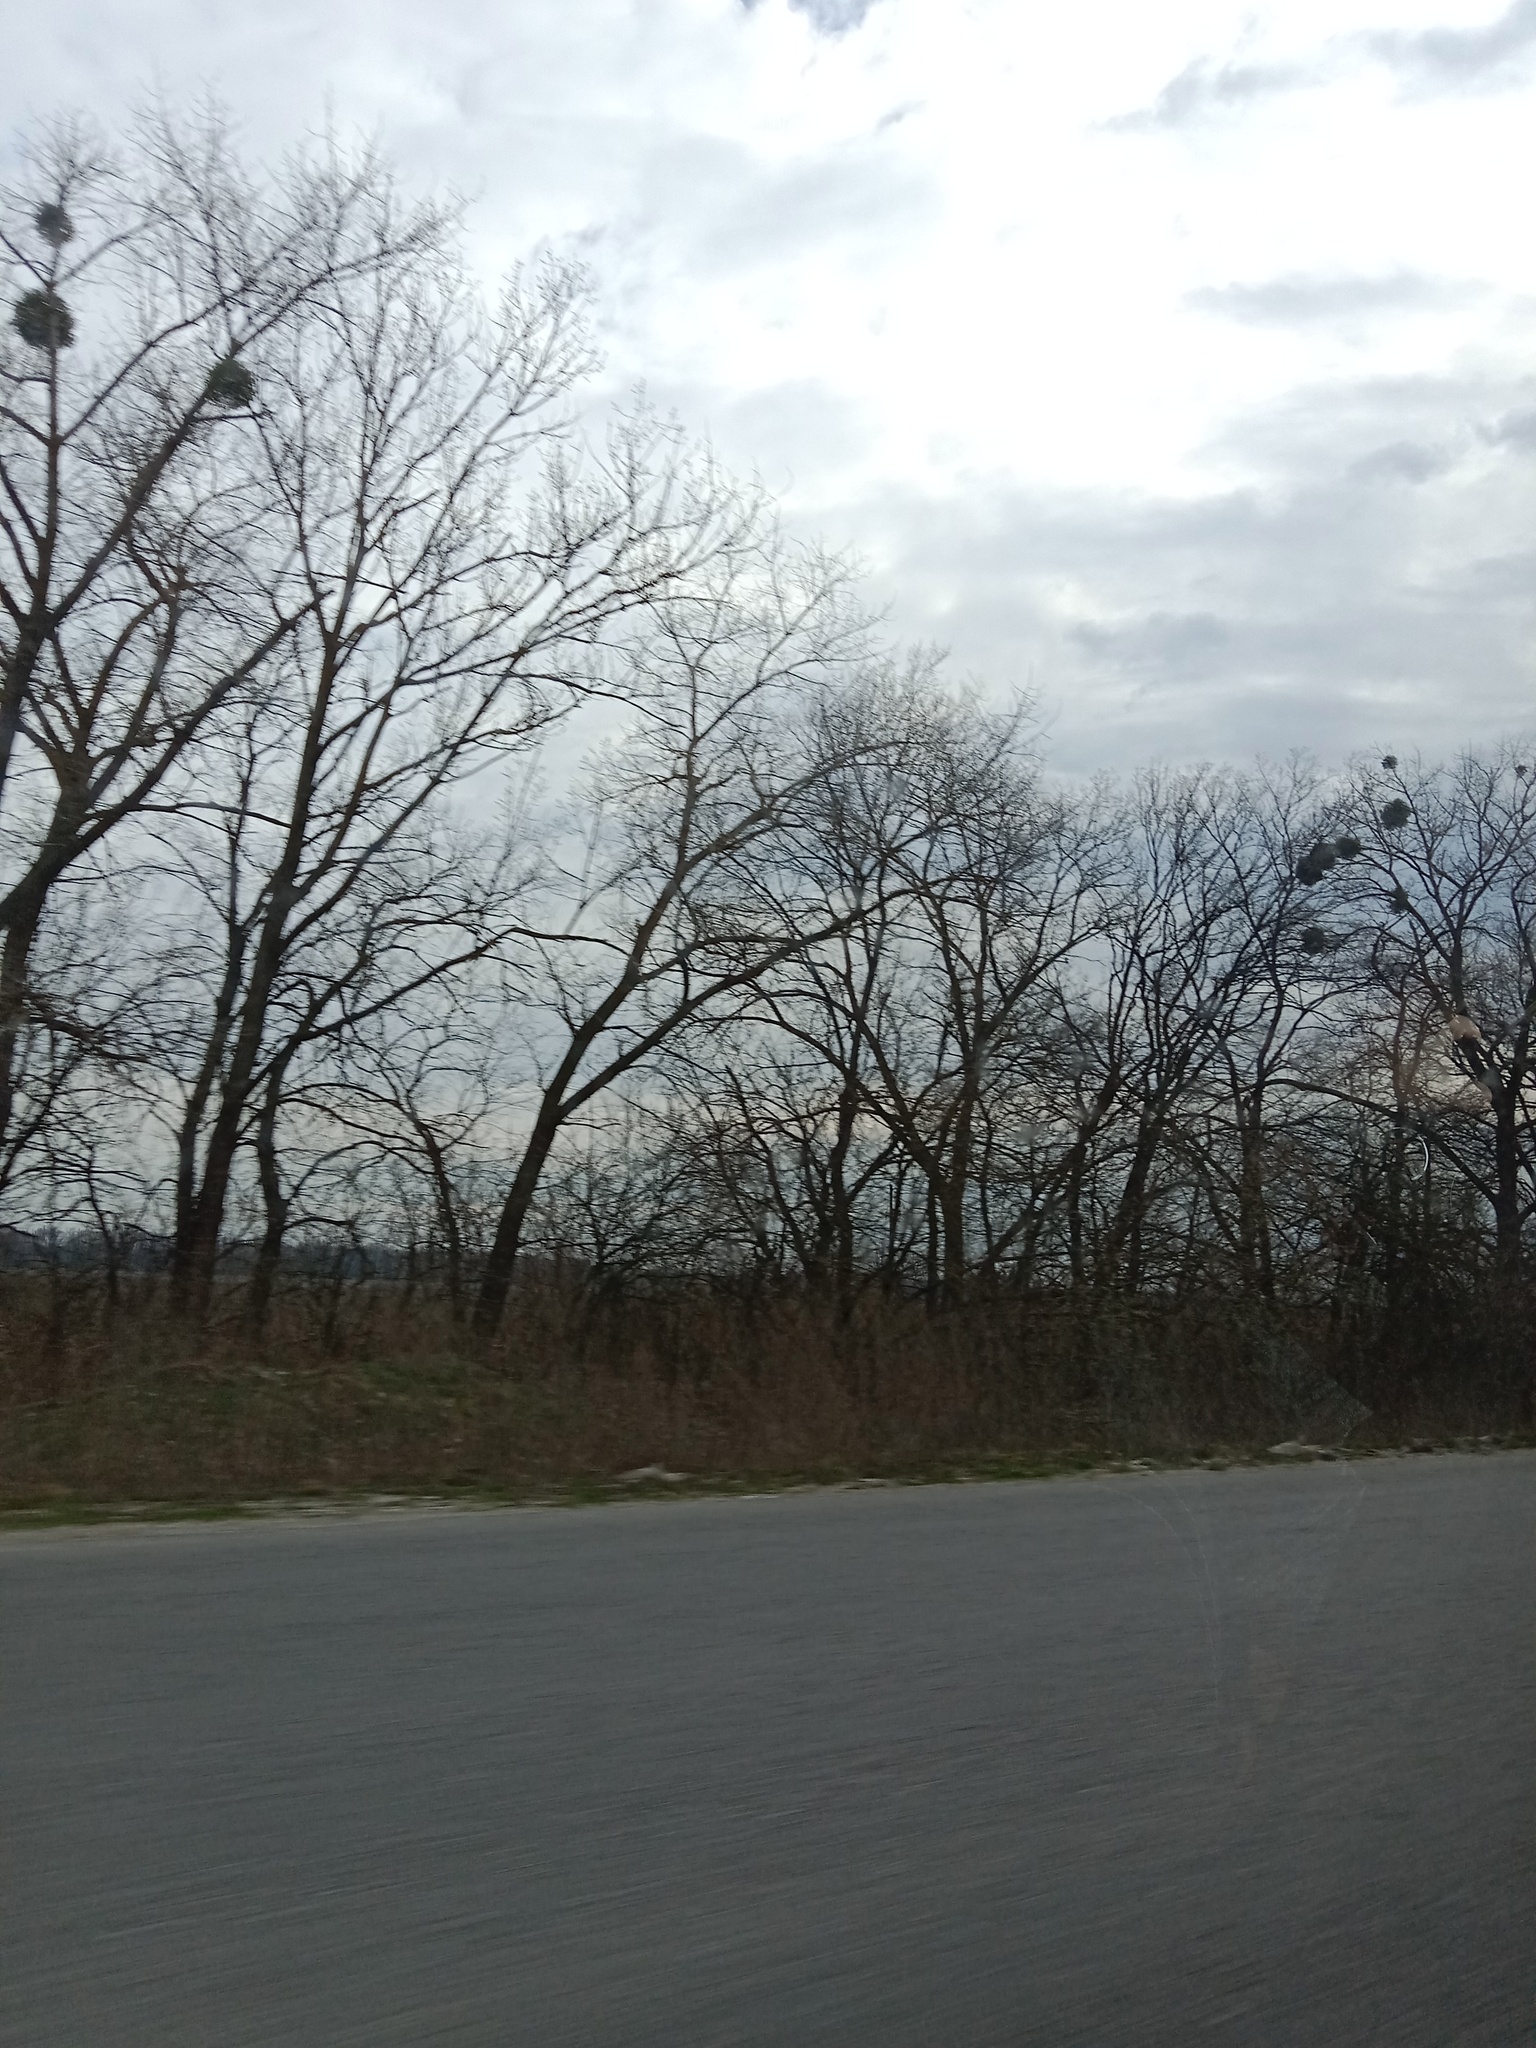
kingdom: Plantae
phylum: Tracheophyta
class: Magnoliopsida
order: Santalales
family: Viscaceae
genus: Viscum
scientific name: Viscum album
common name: Mistletoe
